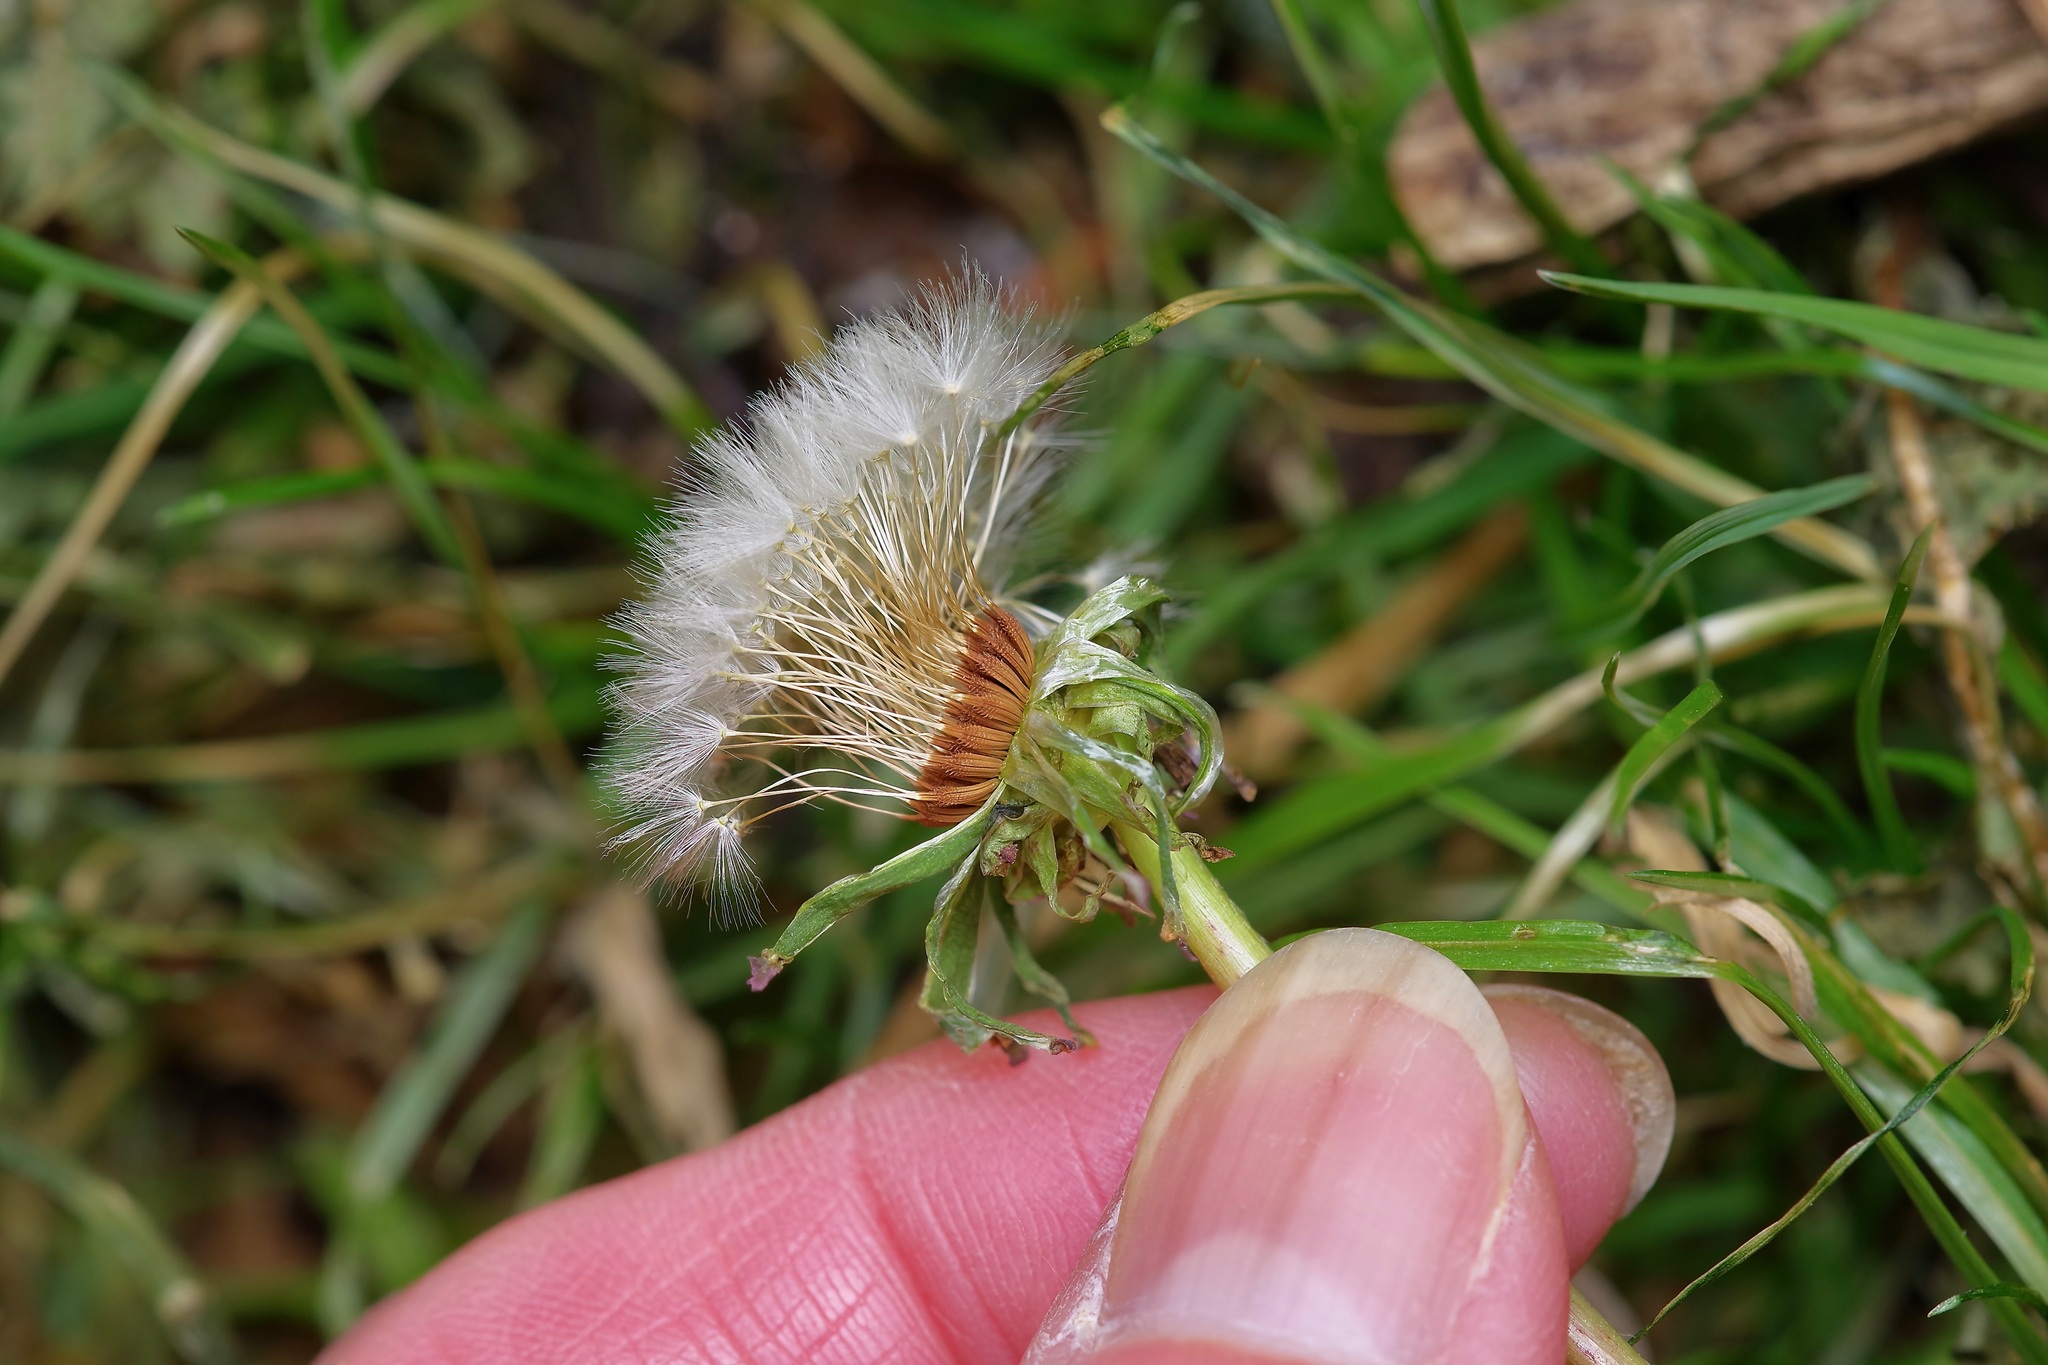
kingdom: Plantae
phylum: Tracheophyta
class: Magnoliopsida
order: Asterales
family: Asteraceae
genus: Taraxacum
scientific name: Taraxacum erythrospermum
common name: Rock dandelion
